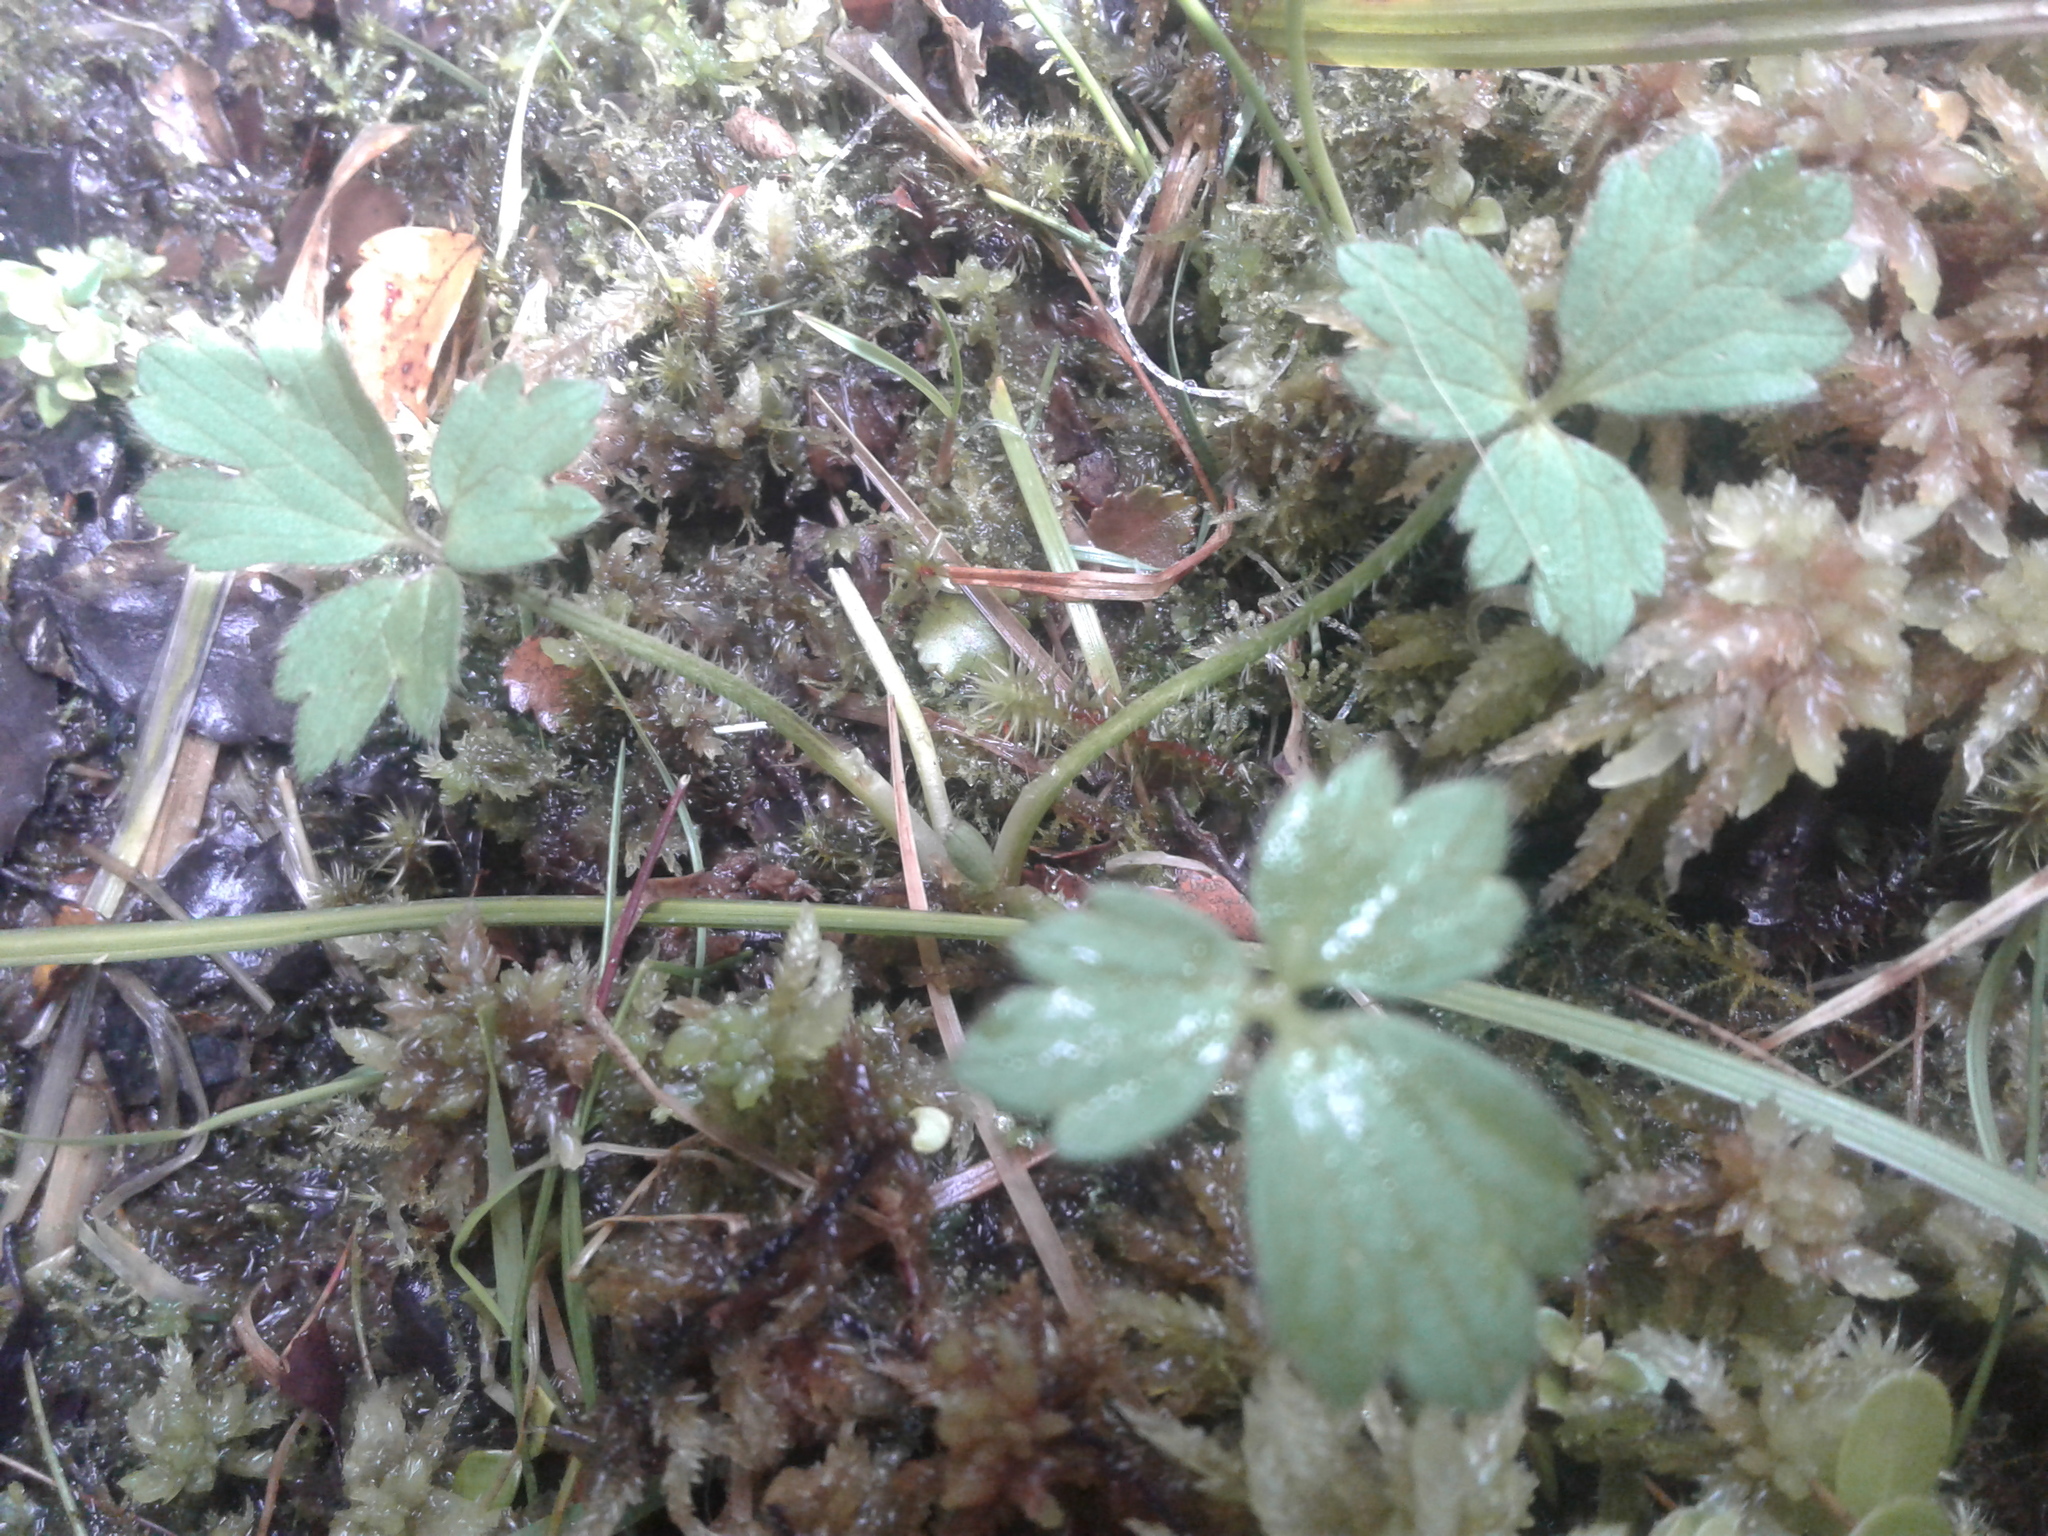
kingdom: Plantae
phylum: Tracheophyta
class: Magnoliopsida
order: Ranunculales
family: Ranunculaceae
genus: Ranunculus
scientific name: Ranunculus repens
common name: Creeping buttercup
